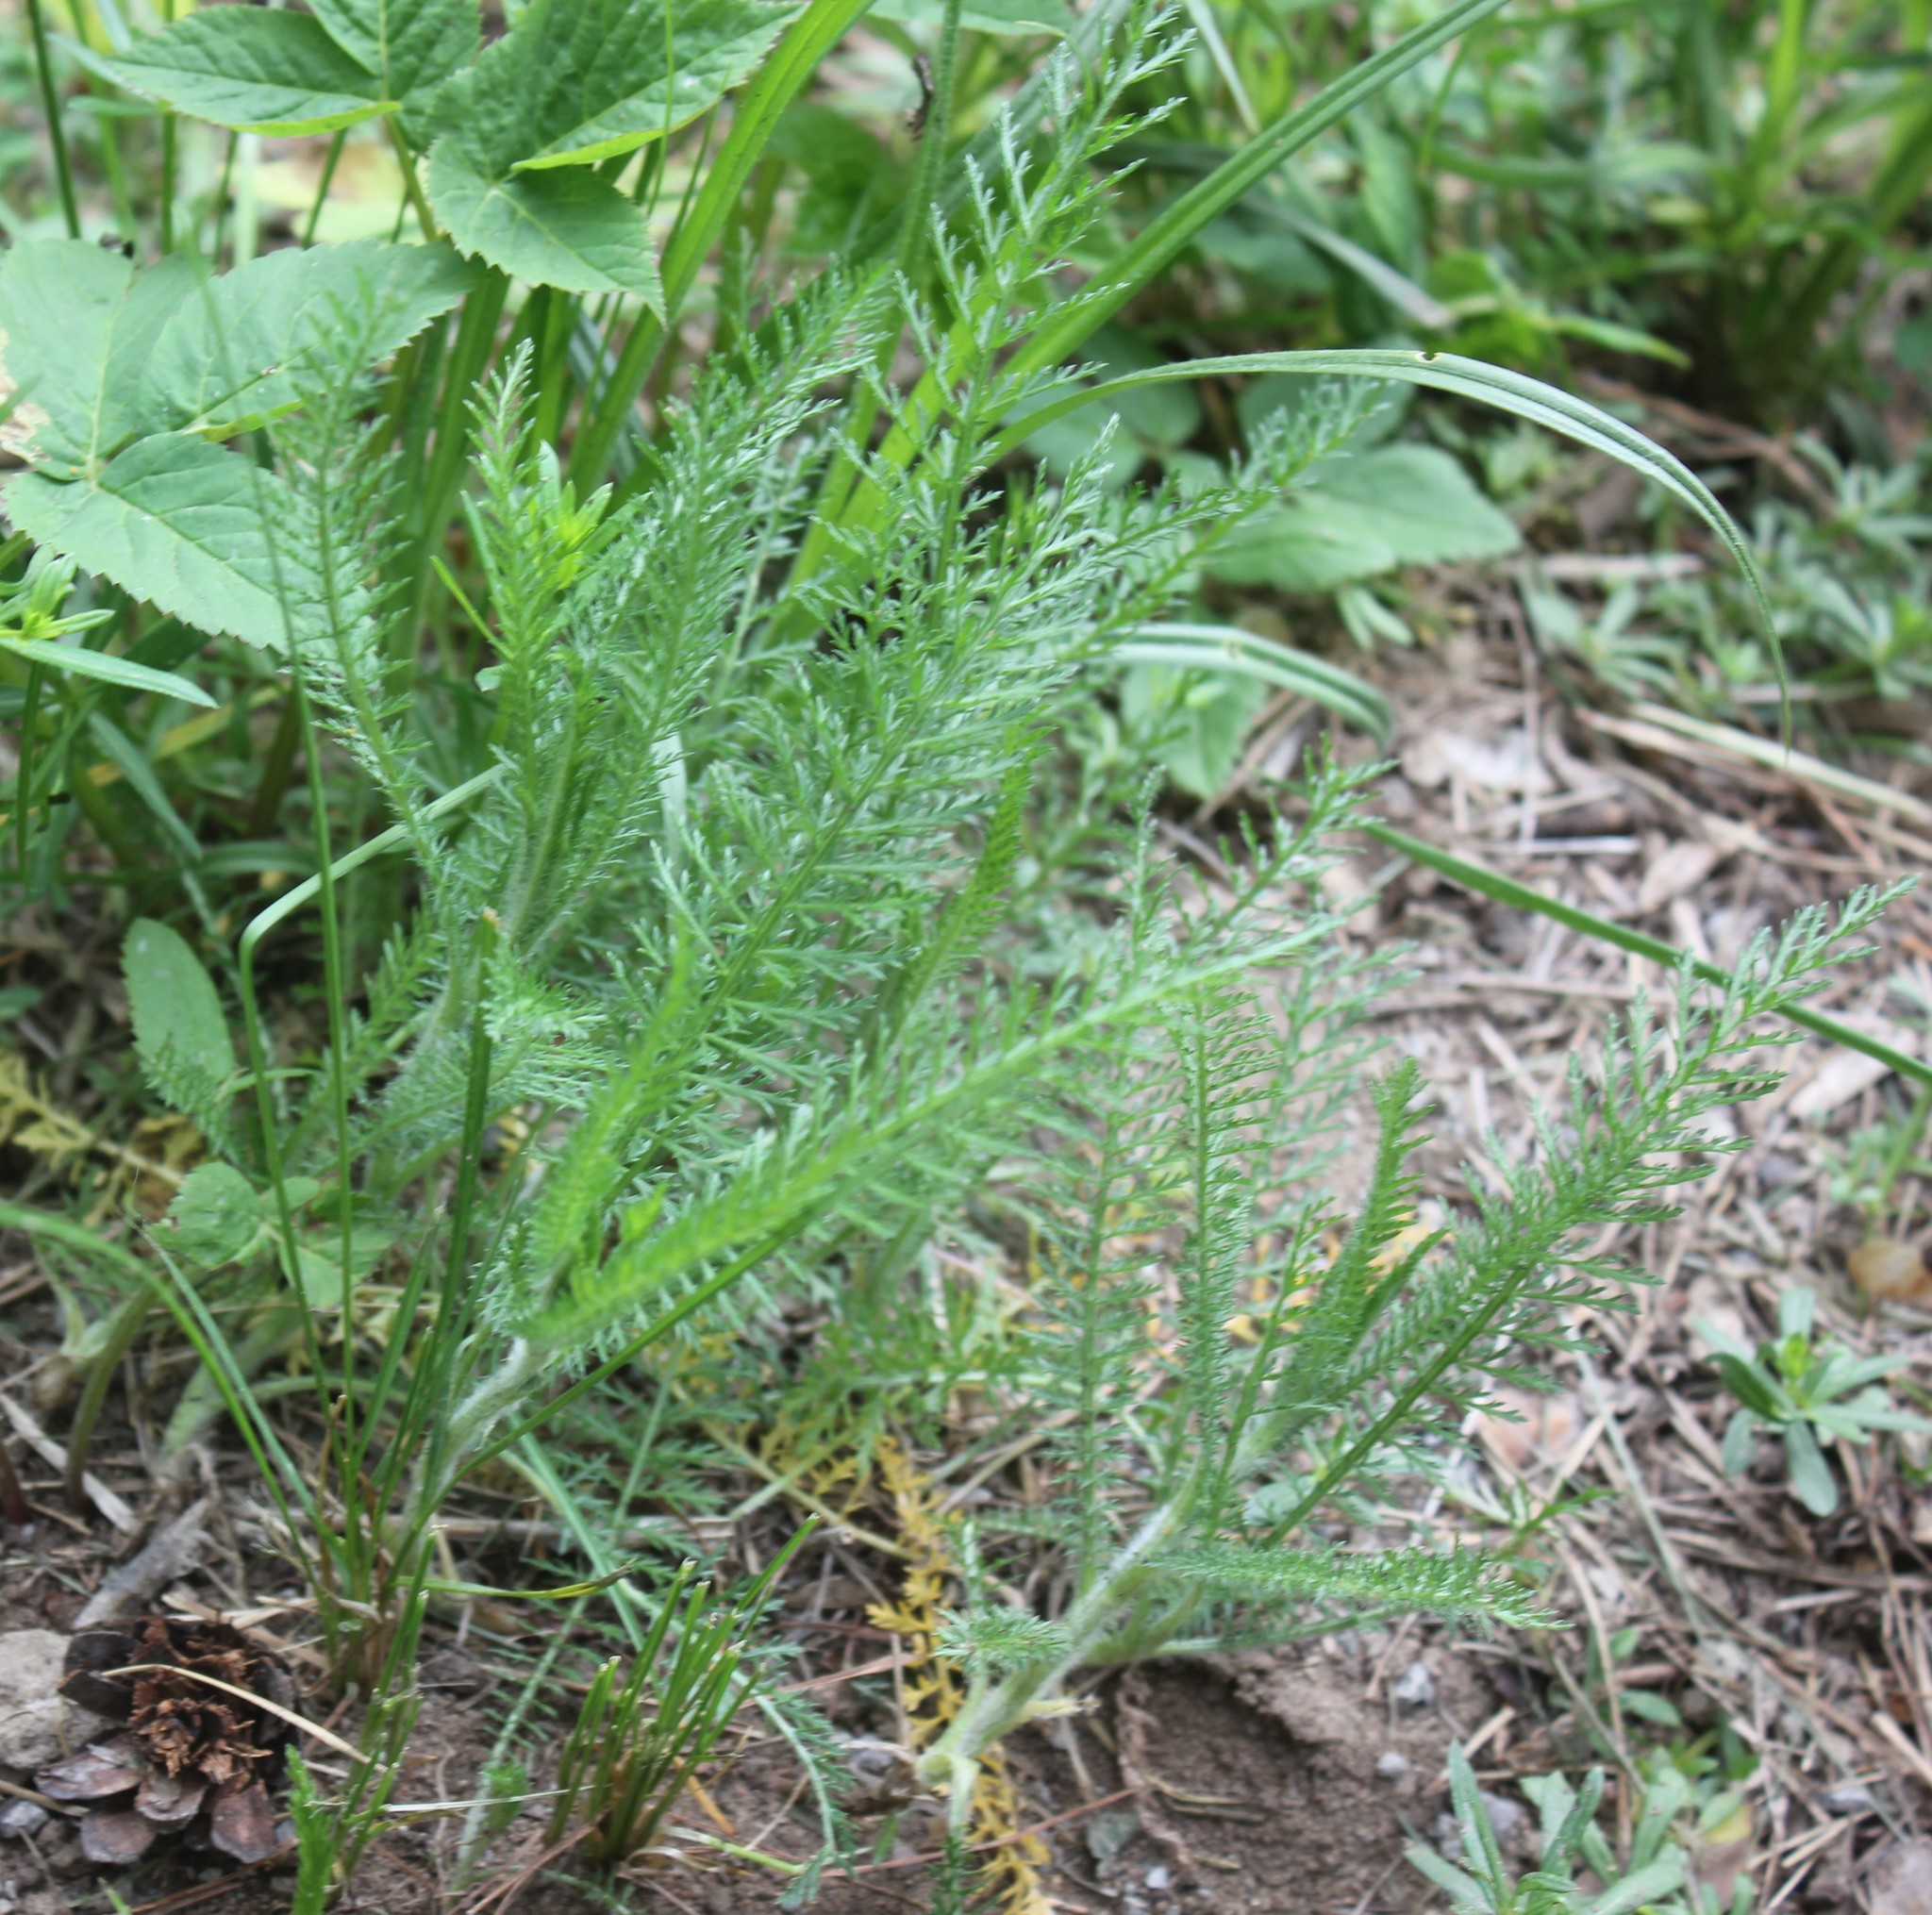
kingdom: Plantae
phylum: Tracheophyta
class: Magnoliopsida
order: Asterales
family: Asteraceae
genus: Achillea
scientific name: Achillea millefolium
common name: Yarrow
